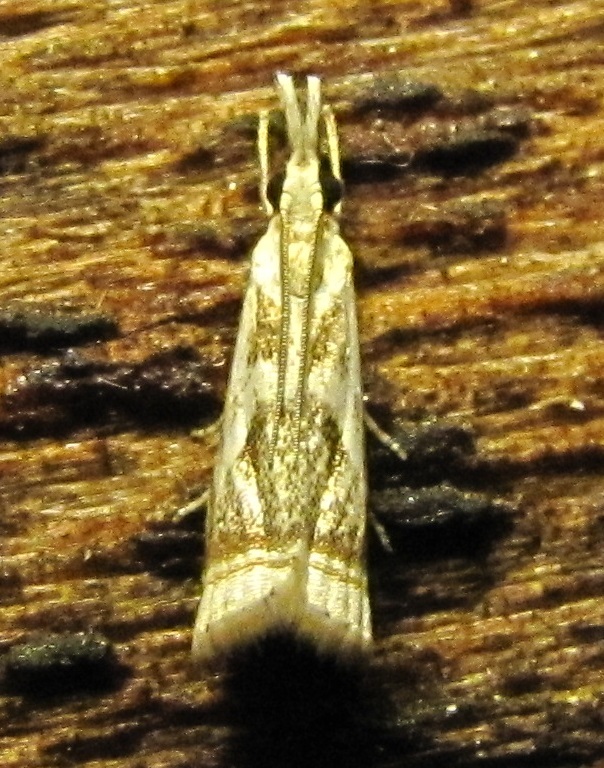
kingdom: Animalia
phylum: Arthropoda
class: Insecta
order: Lepidoptera
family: Crambidae
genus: Microcrambus
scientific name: Microcrambus elegans
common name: Elegant grass-veneer
